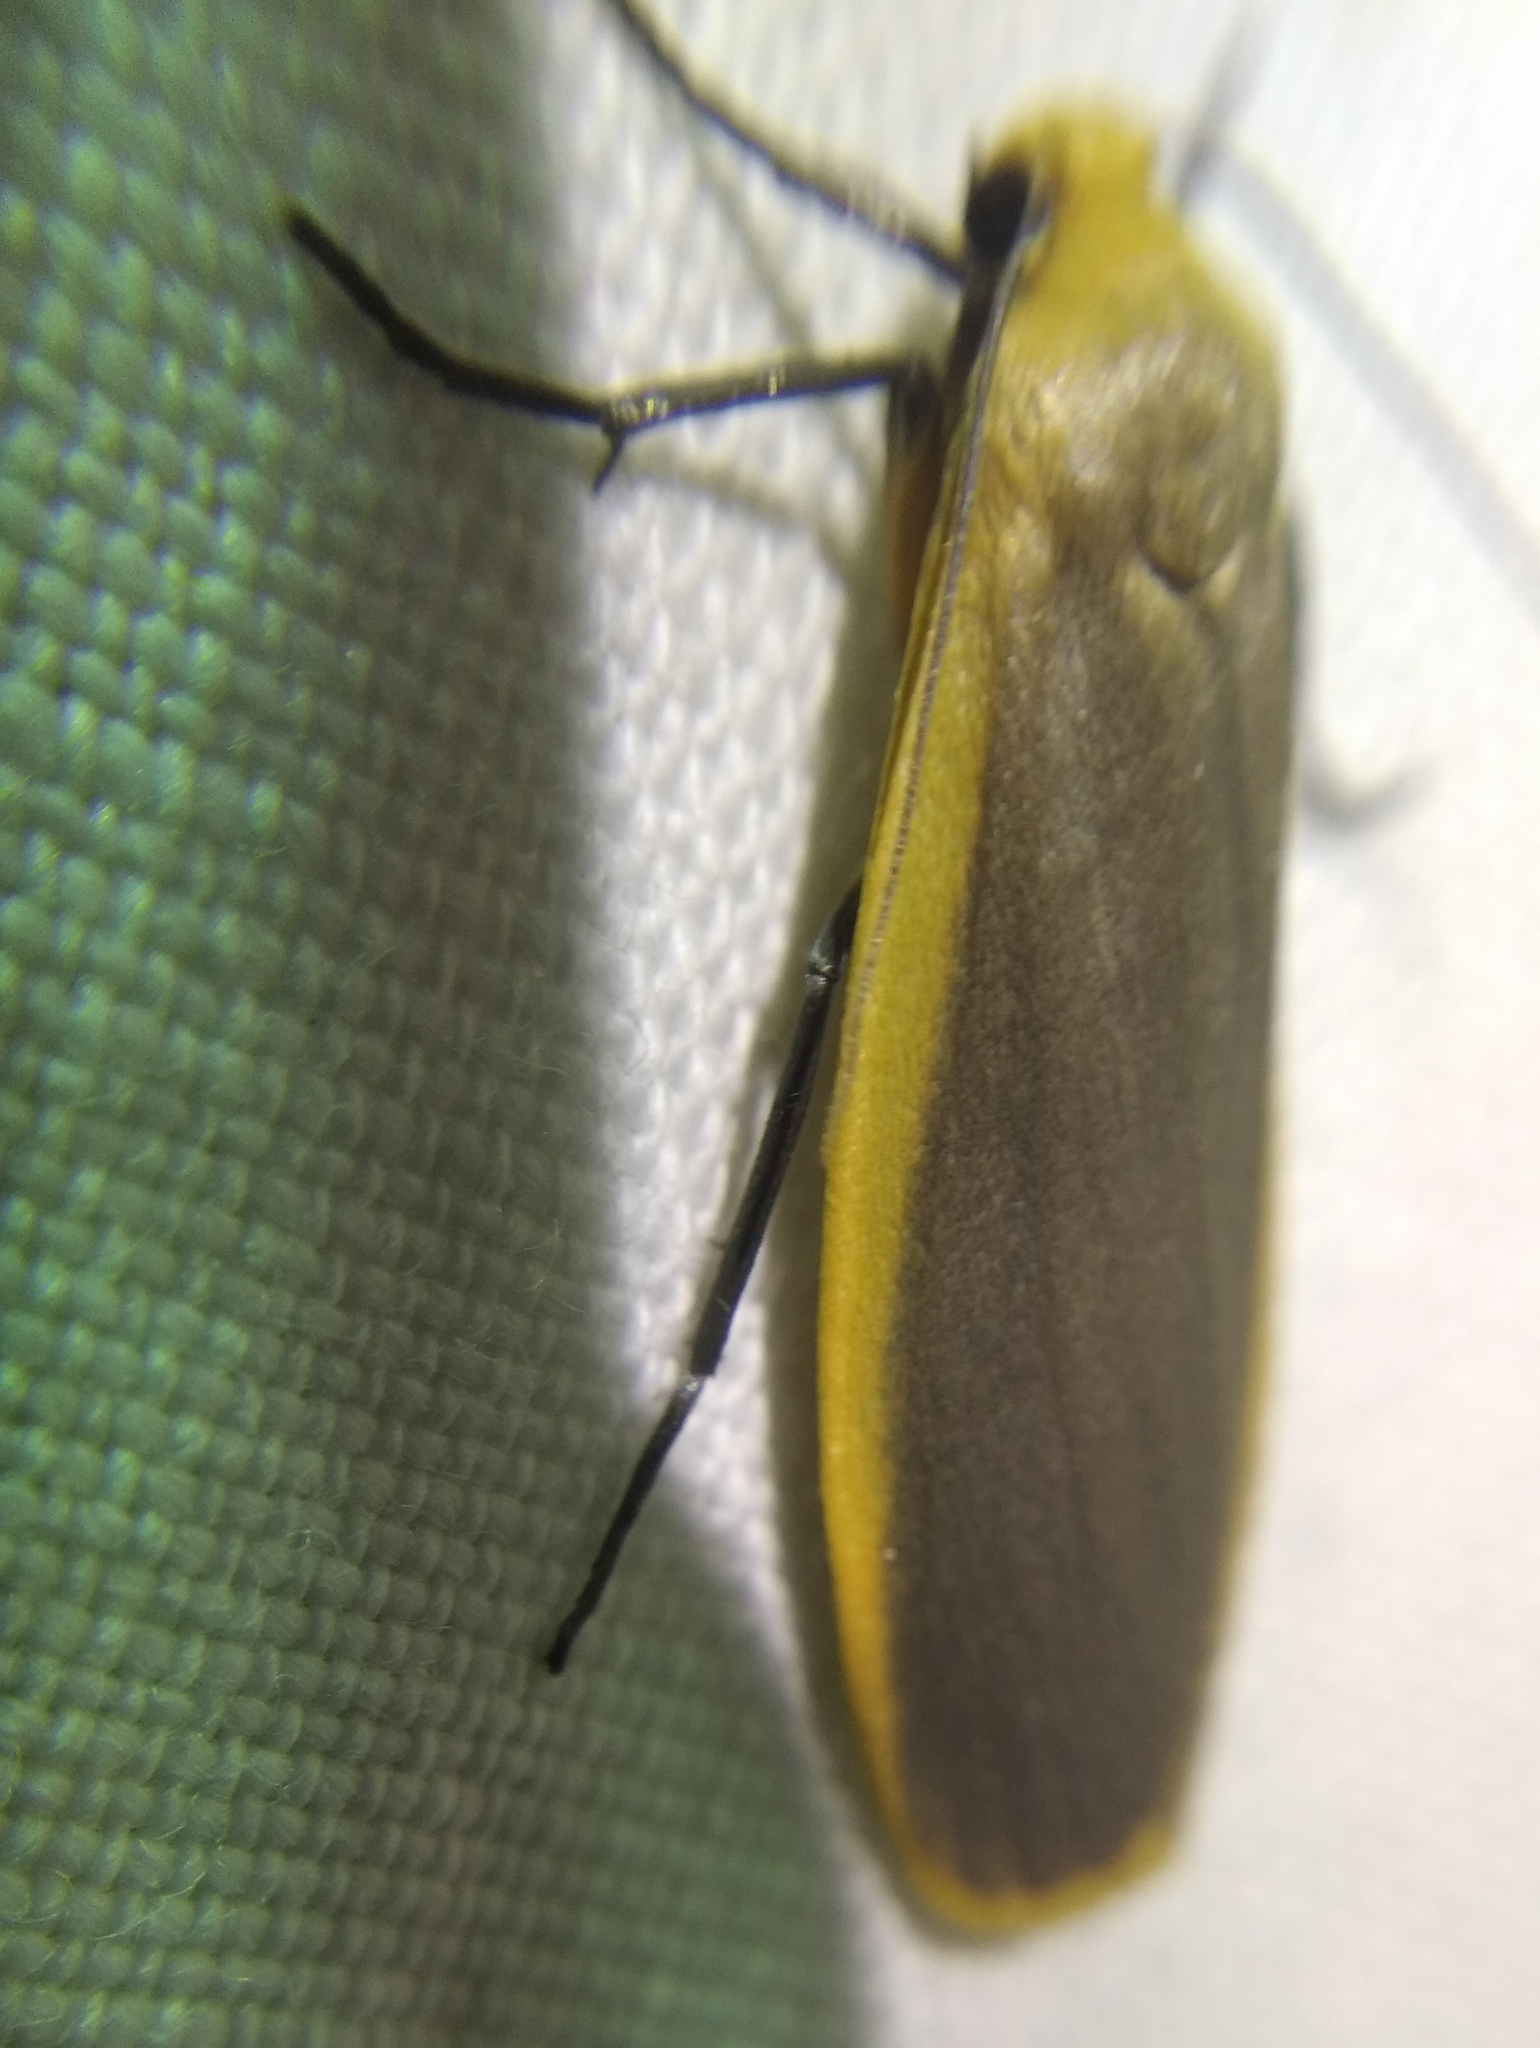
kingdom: Animalia
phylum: Arthropoda
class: Insecta
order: Lepidoptera
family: Erebidae
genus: Katha
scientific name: Katha depressa
